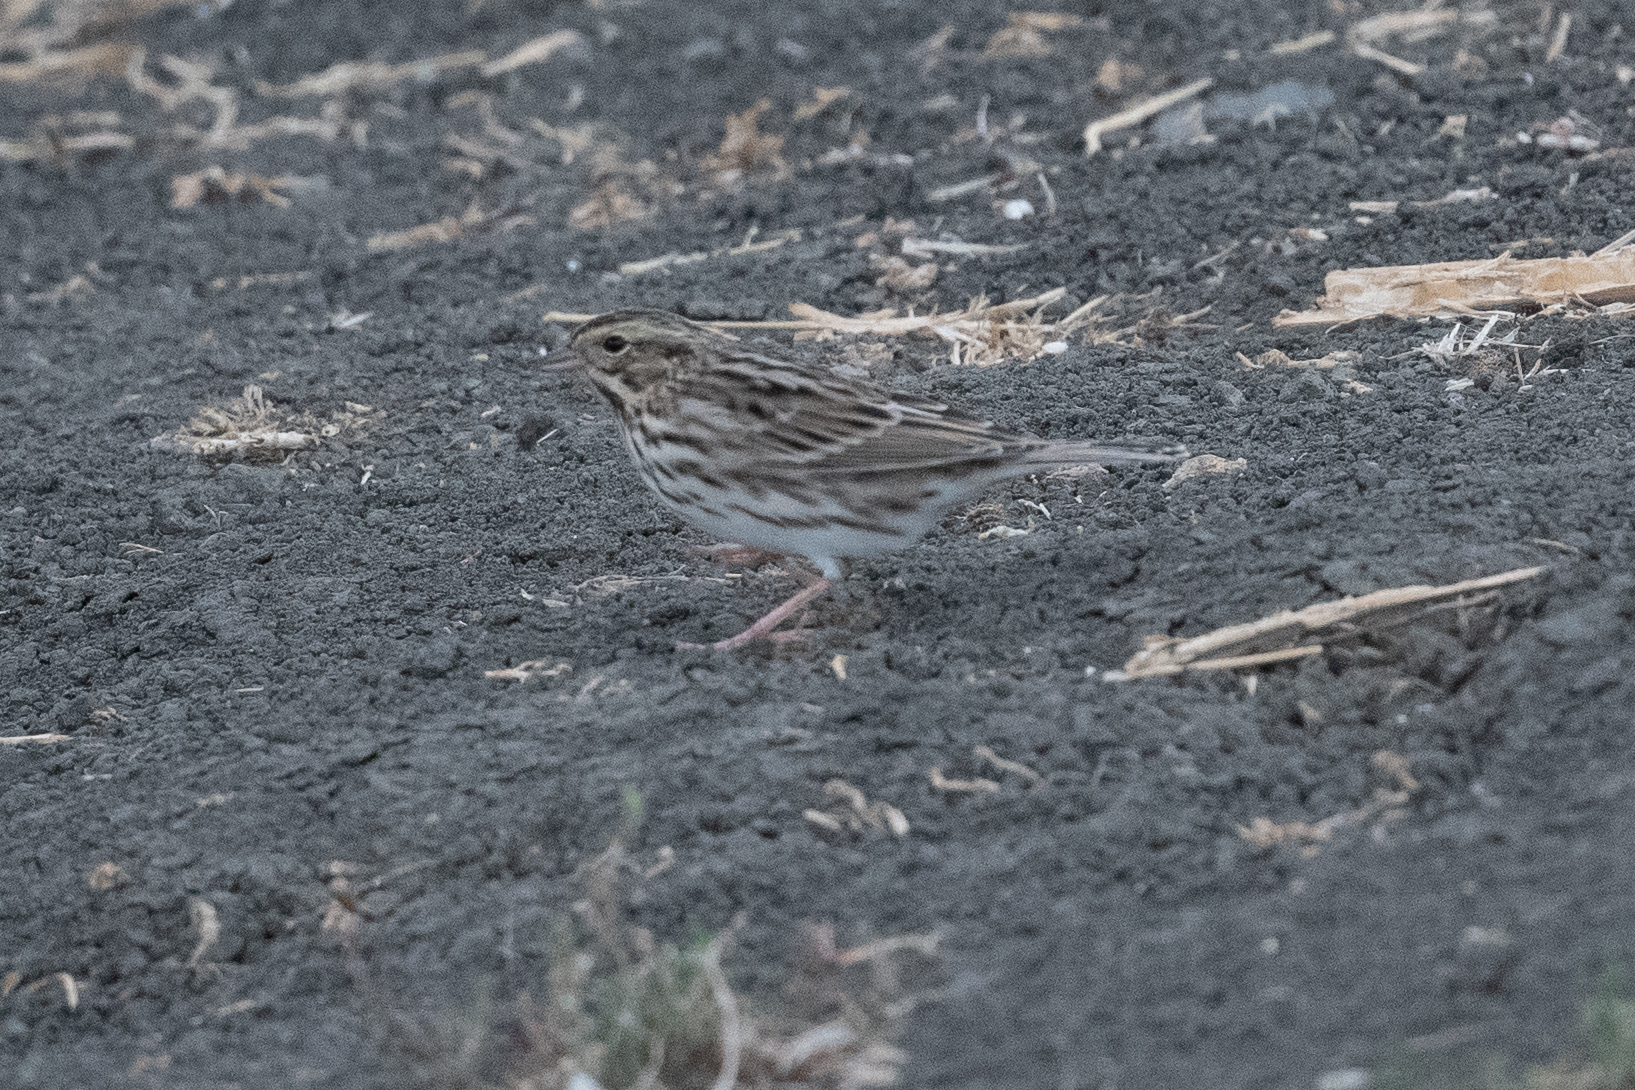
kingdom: Animalia
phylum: Chordata
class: Aves
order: Passeriformes
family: Passerellidae
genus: Passerculus
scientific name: Passerculus sandwichensis
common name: Savannah sparrow
